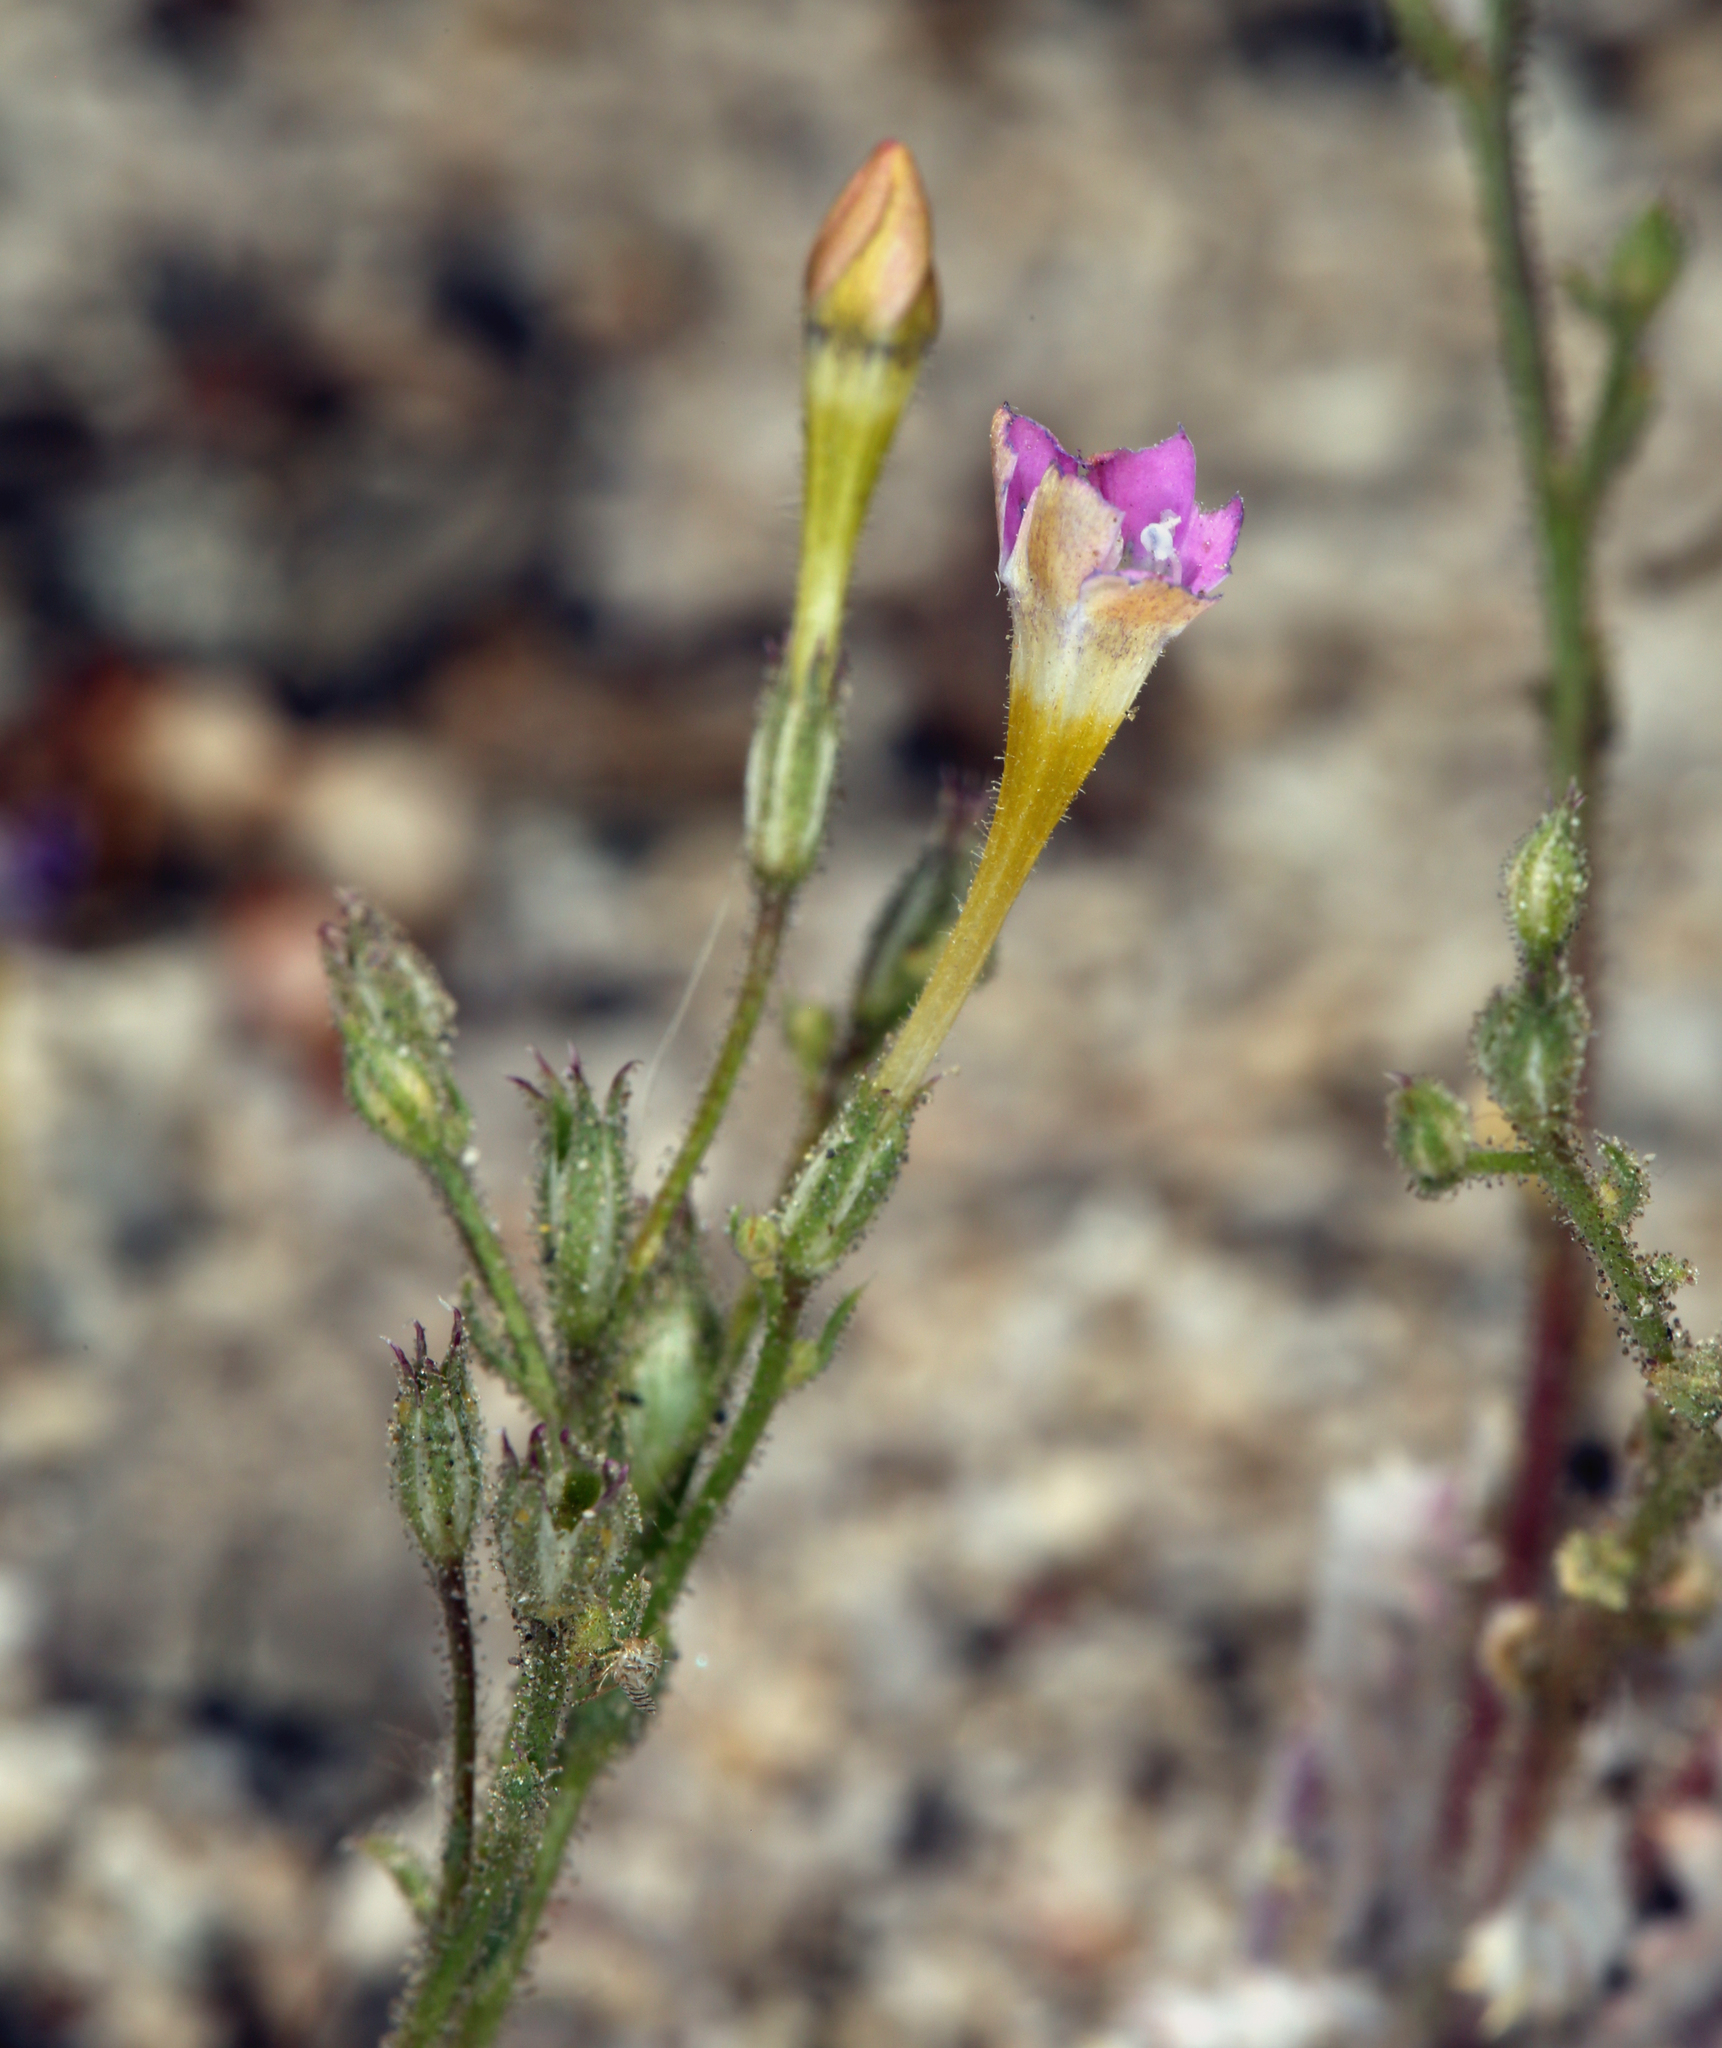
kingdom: Plantae
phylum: Tracheophyta
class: Magnoliopsida
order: Ericales
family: Polemoniaceae
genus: Gilia
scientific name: Gilia cana
